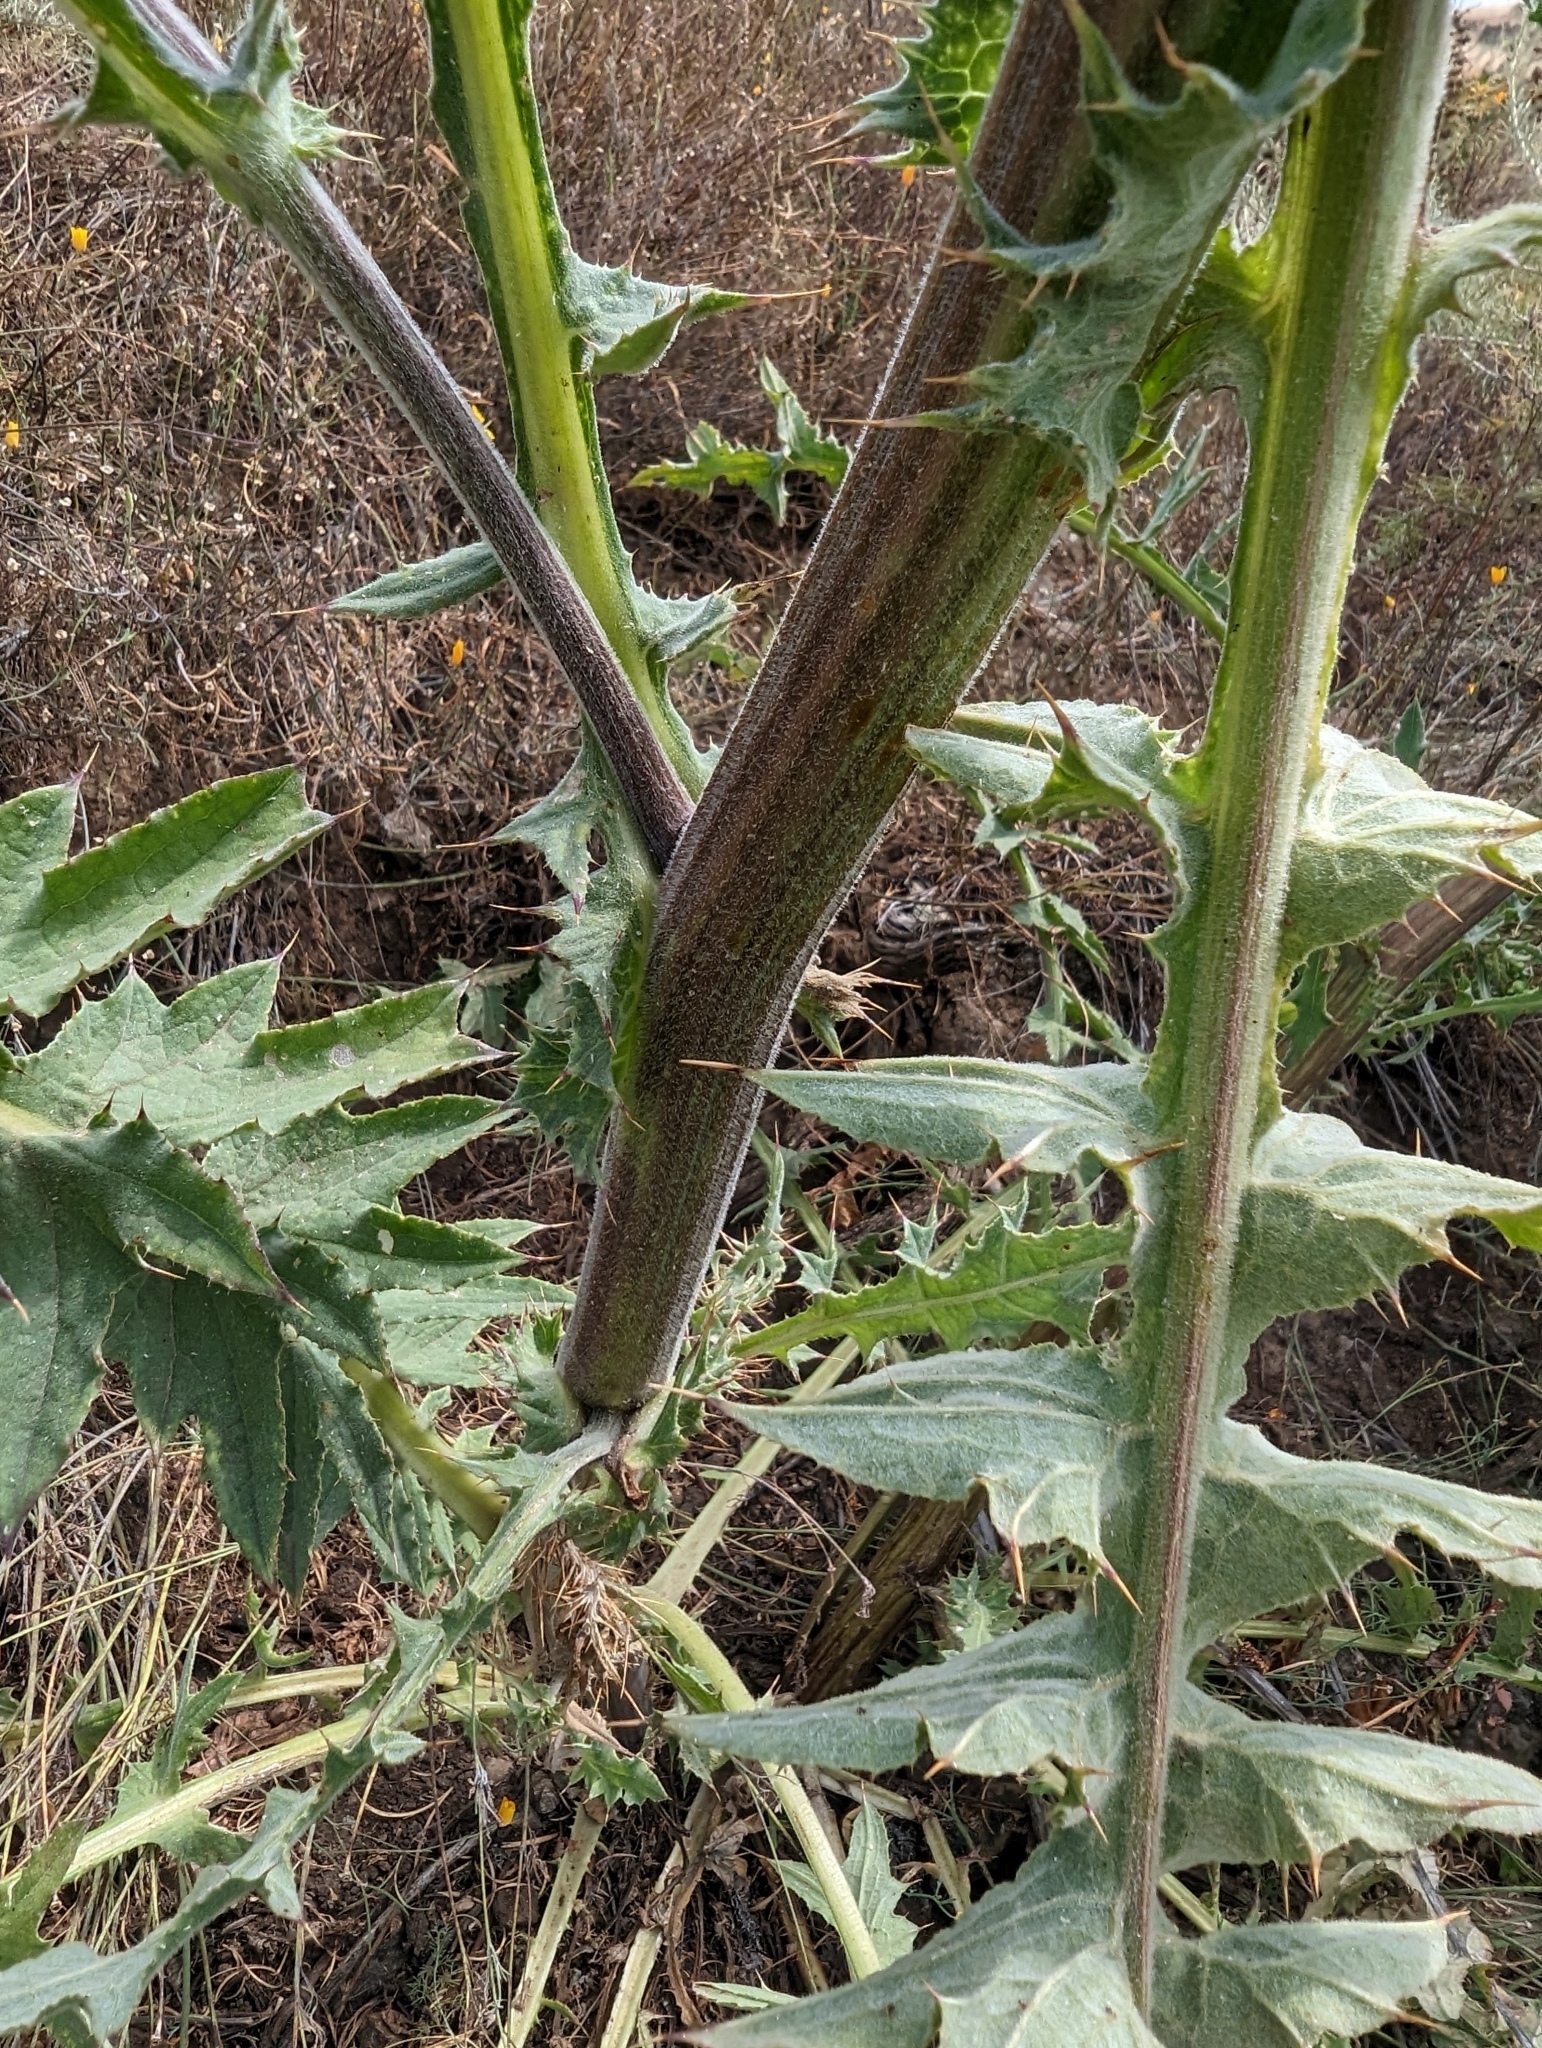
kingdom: Plantae
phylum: Tracheophyta
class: Magnoliopsida
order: Asterales
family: Asteraceae
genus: Cirsium
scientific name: Cirsium fontinale
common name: Fountain thistle
